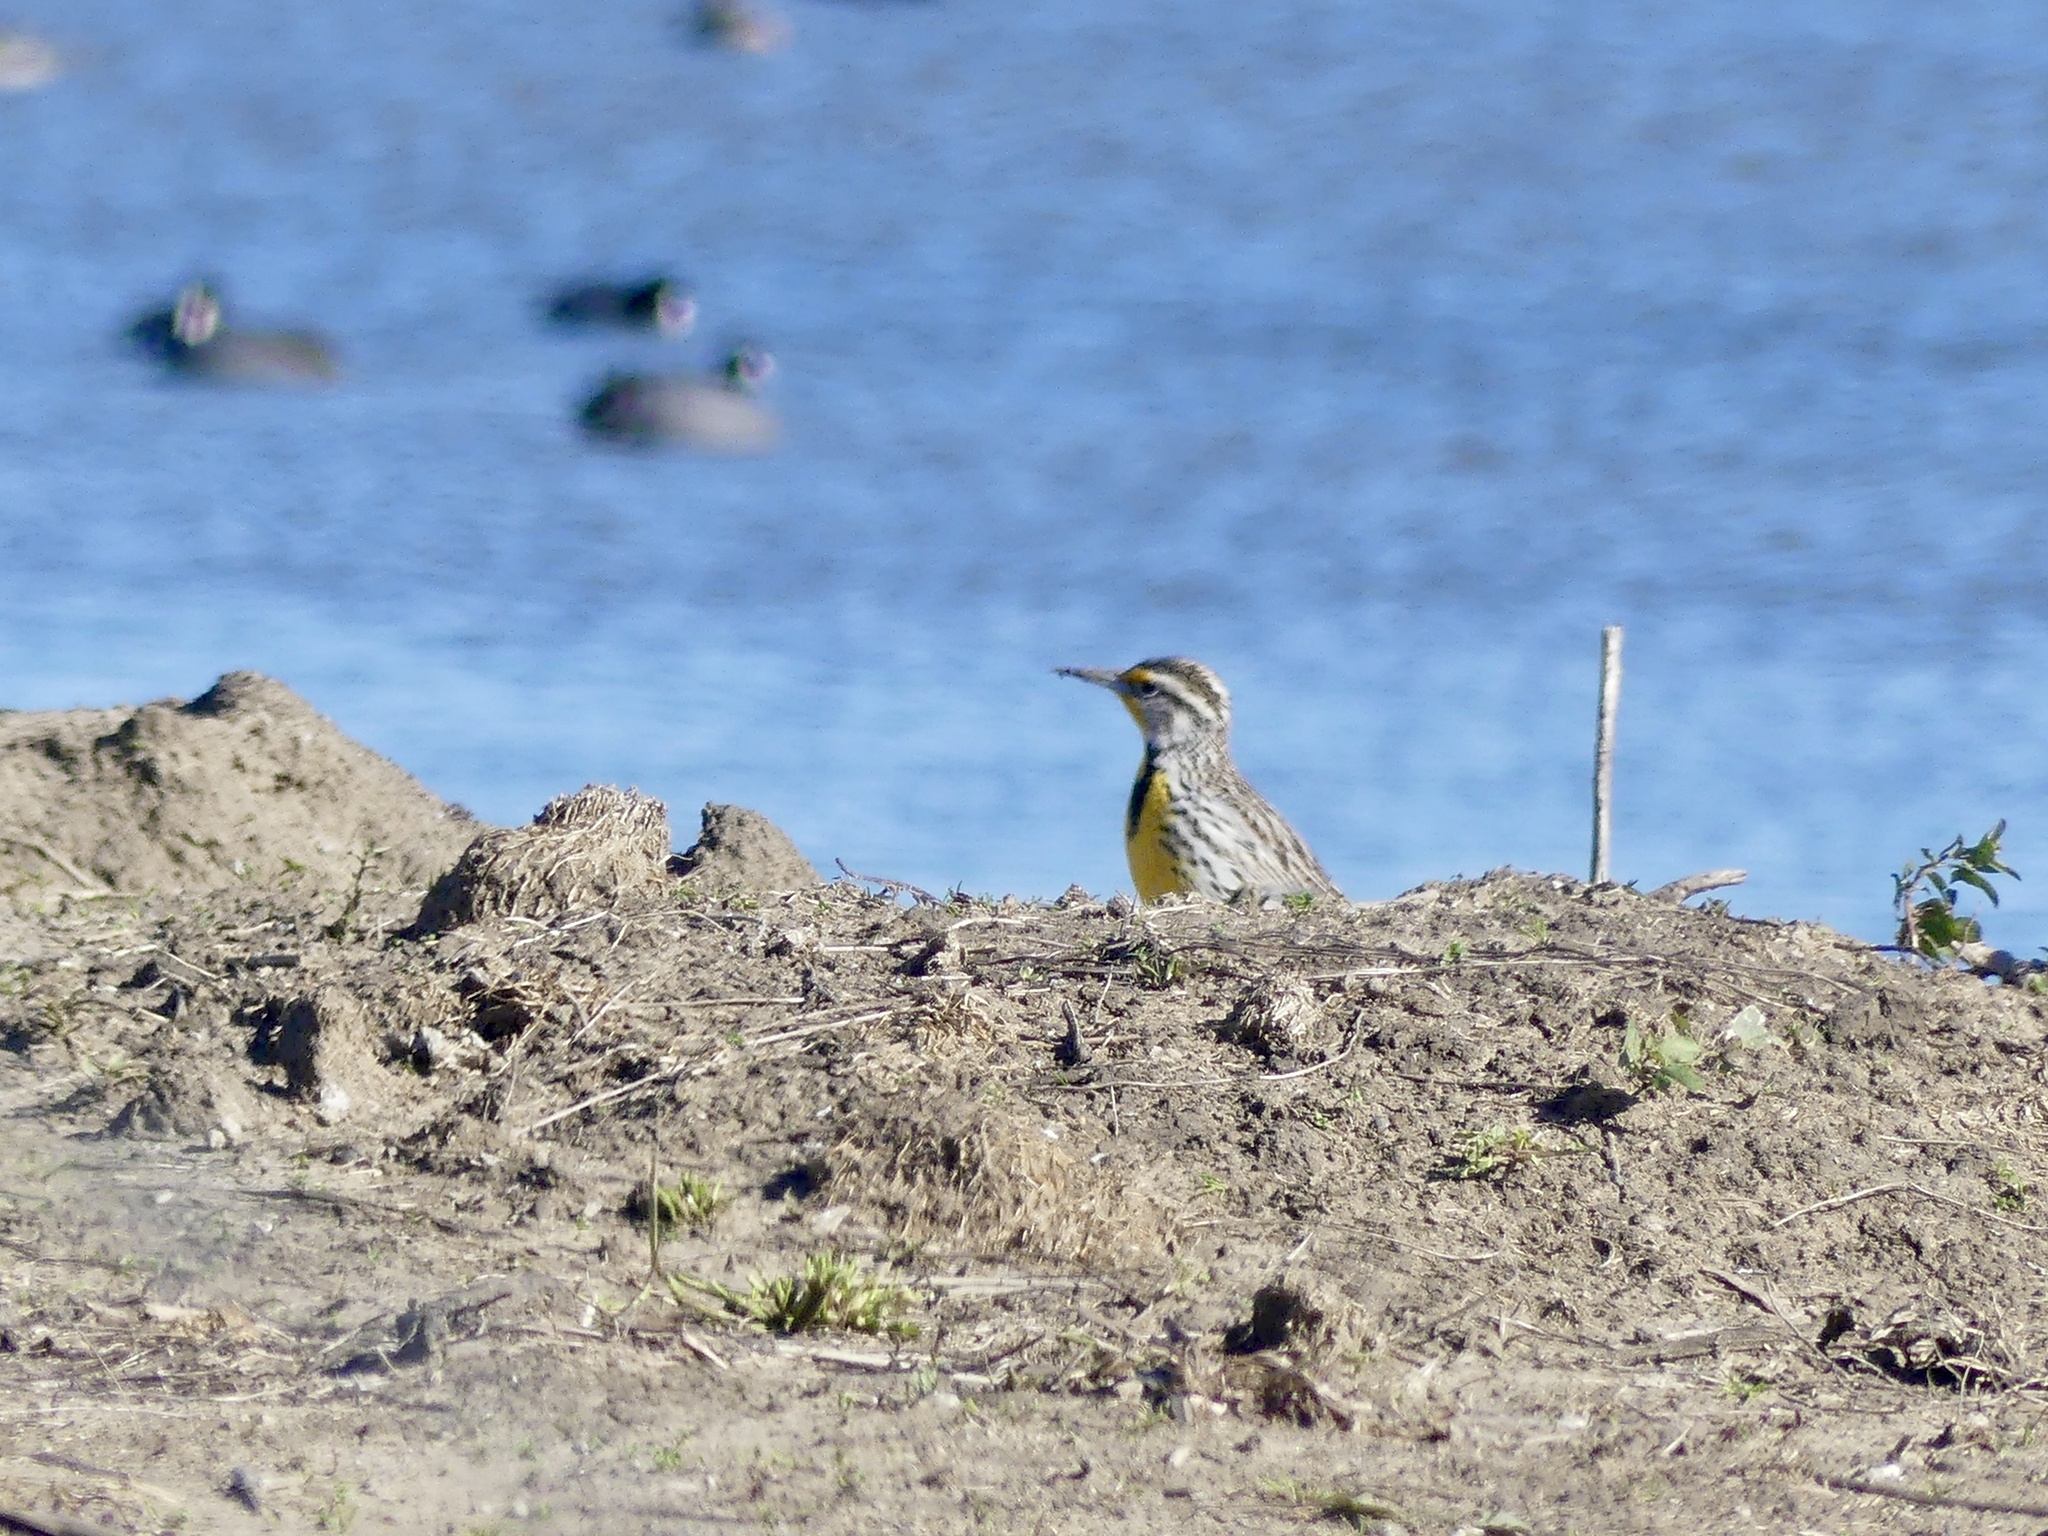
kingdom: Animalia
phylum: Chordata
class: Aves
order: Passeriformes
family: Icteridae
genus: Sturnella
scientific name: Sturnella neglecta
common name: Western meadowlark
